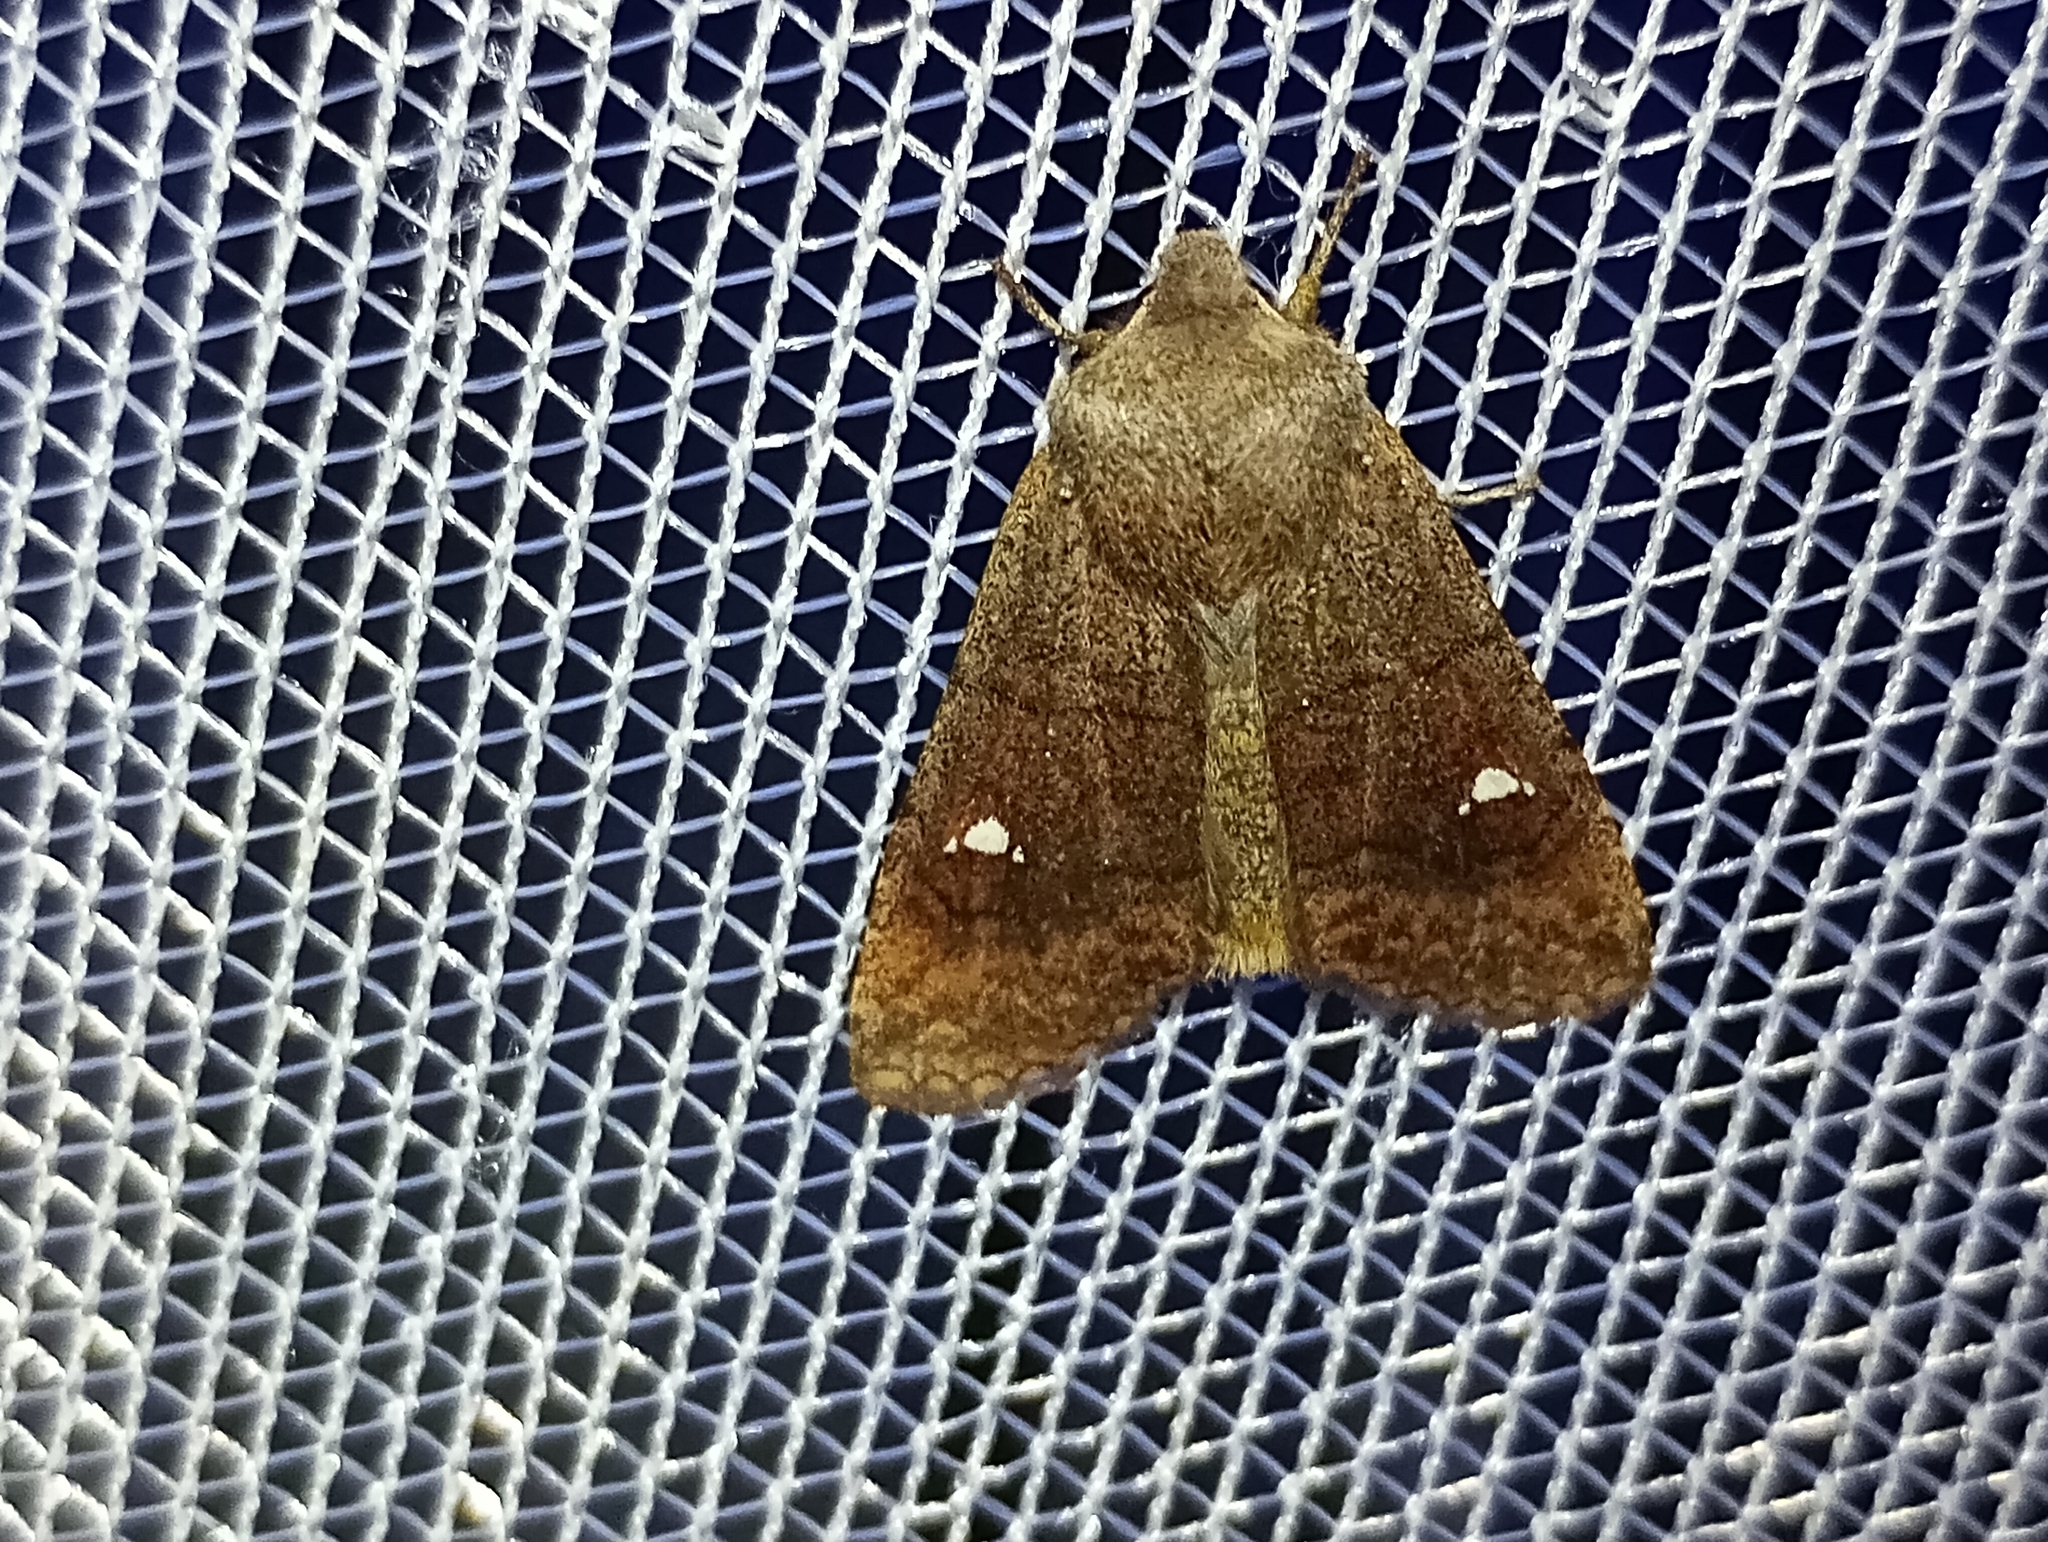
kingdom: Animalia
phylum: Arthropoda
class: Insecta
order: Lepidoptera
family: Noctuidae
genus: Eupsilia
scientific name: Eupsilia transversa
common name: Satellite
